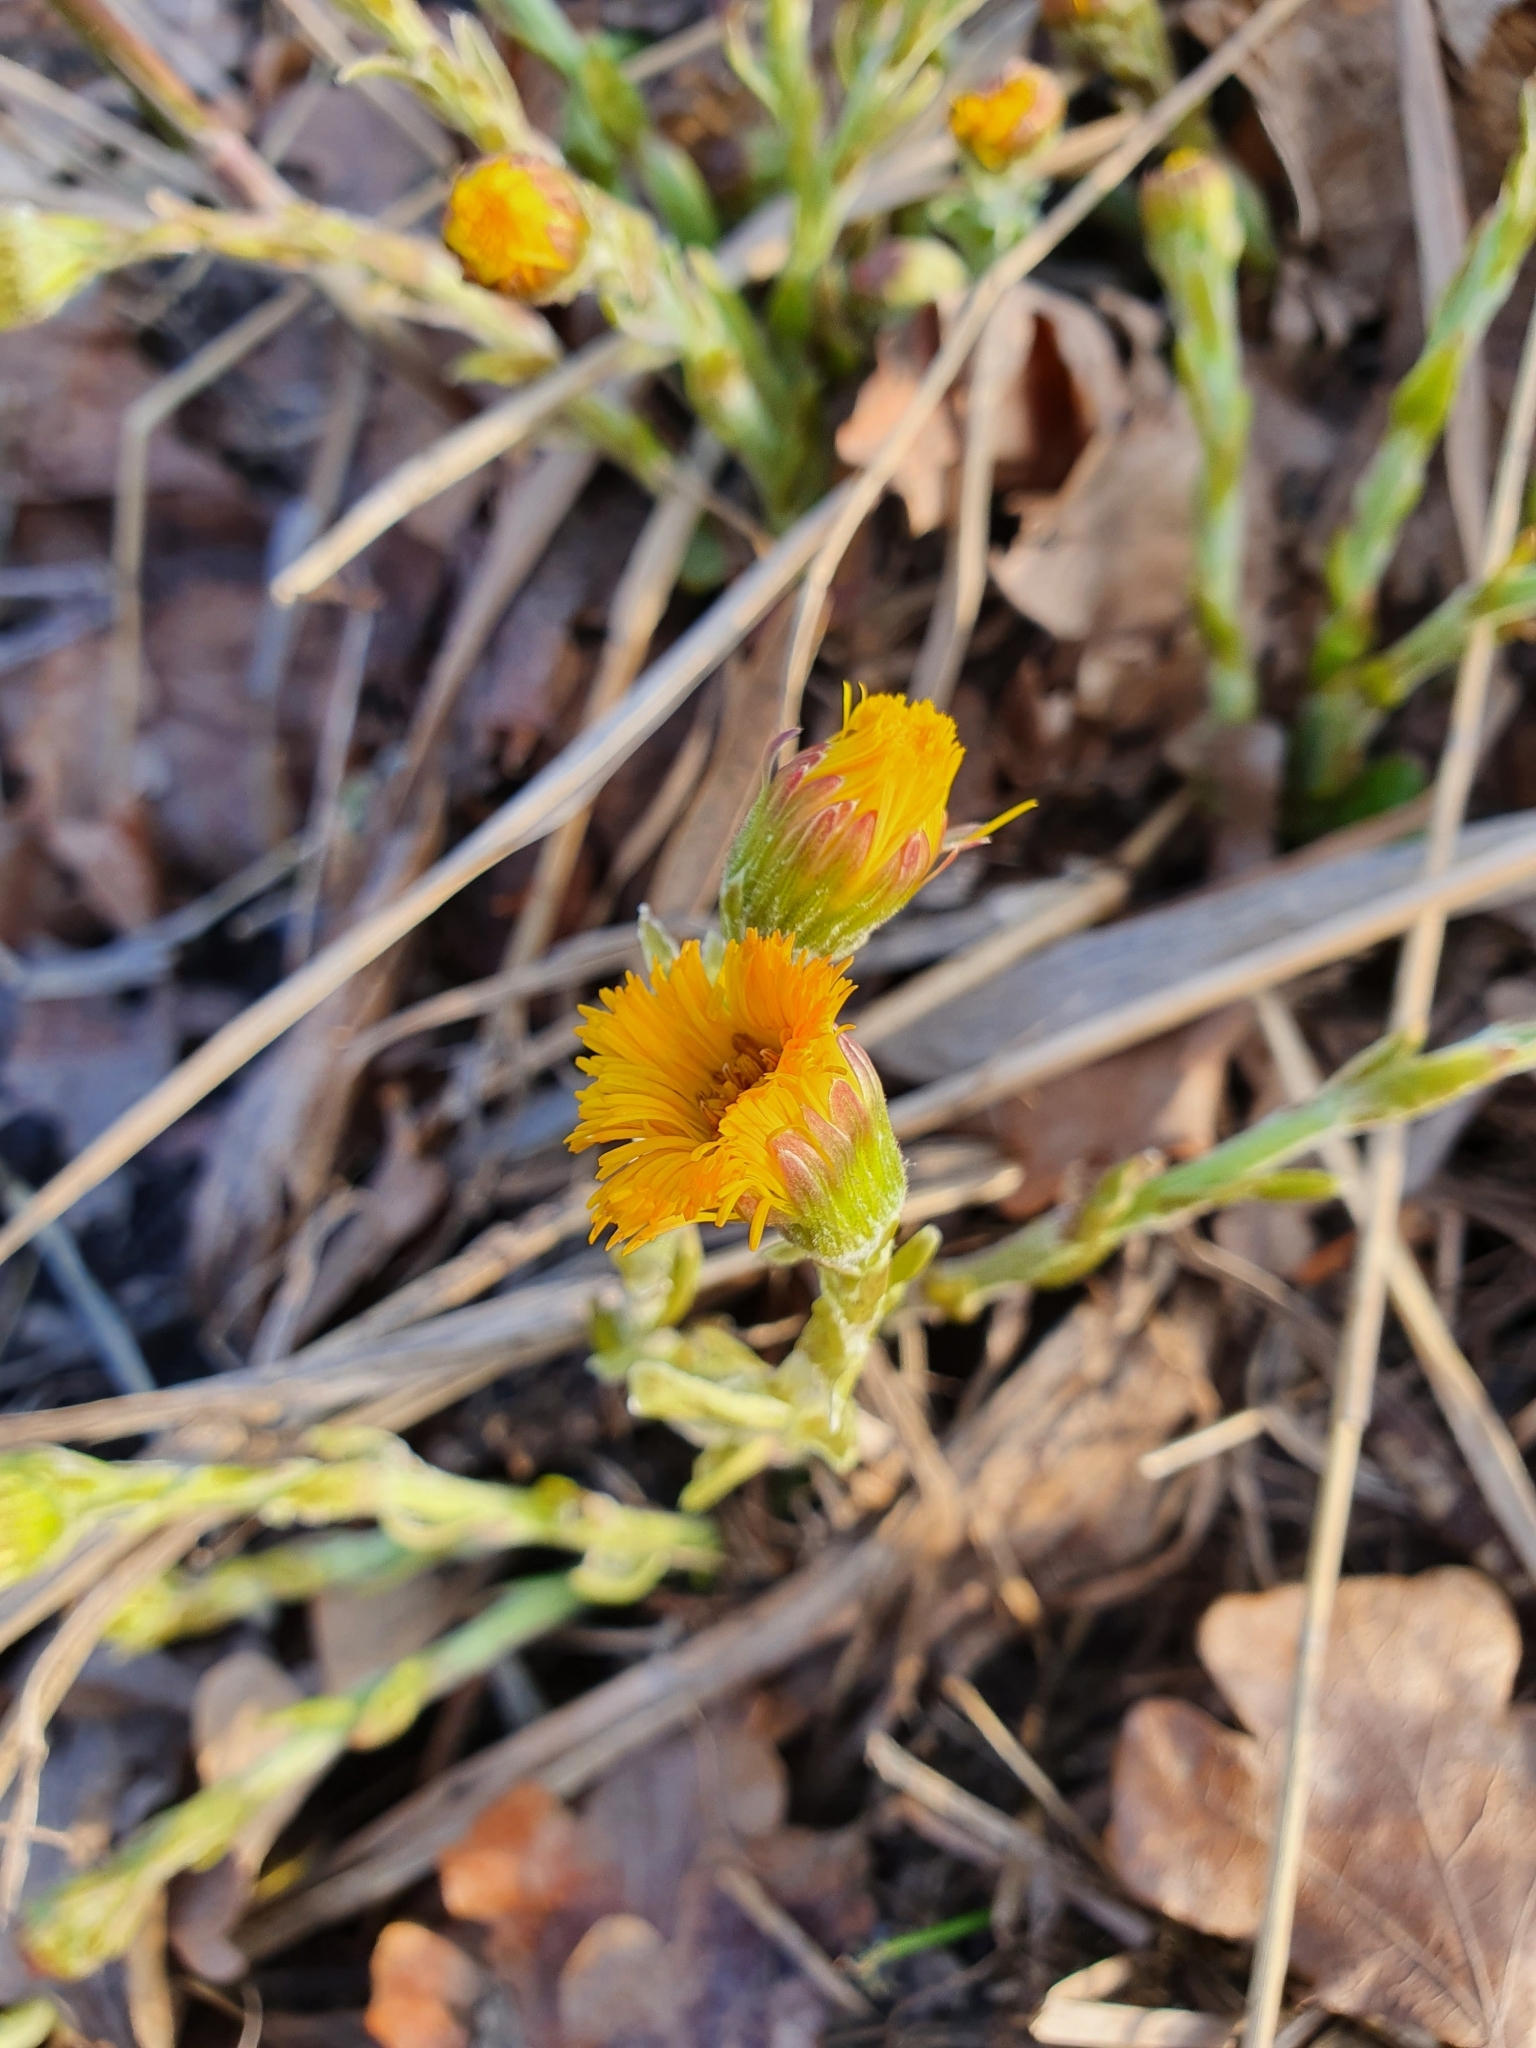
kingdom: Plantae
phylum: Tracheophyta
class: Magnoliopsida
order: Asterales
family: Asteraceae
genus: Tussilago
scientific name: Tussilago farfara
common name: Coltsfoot
